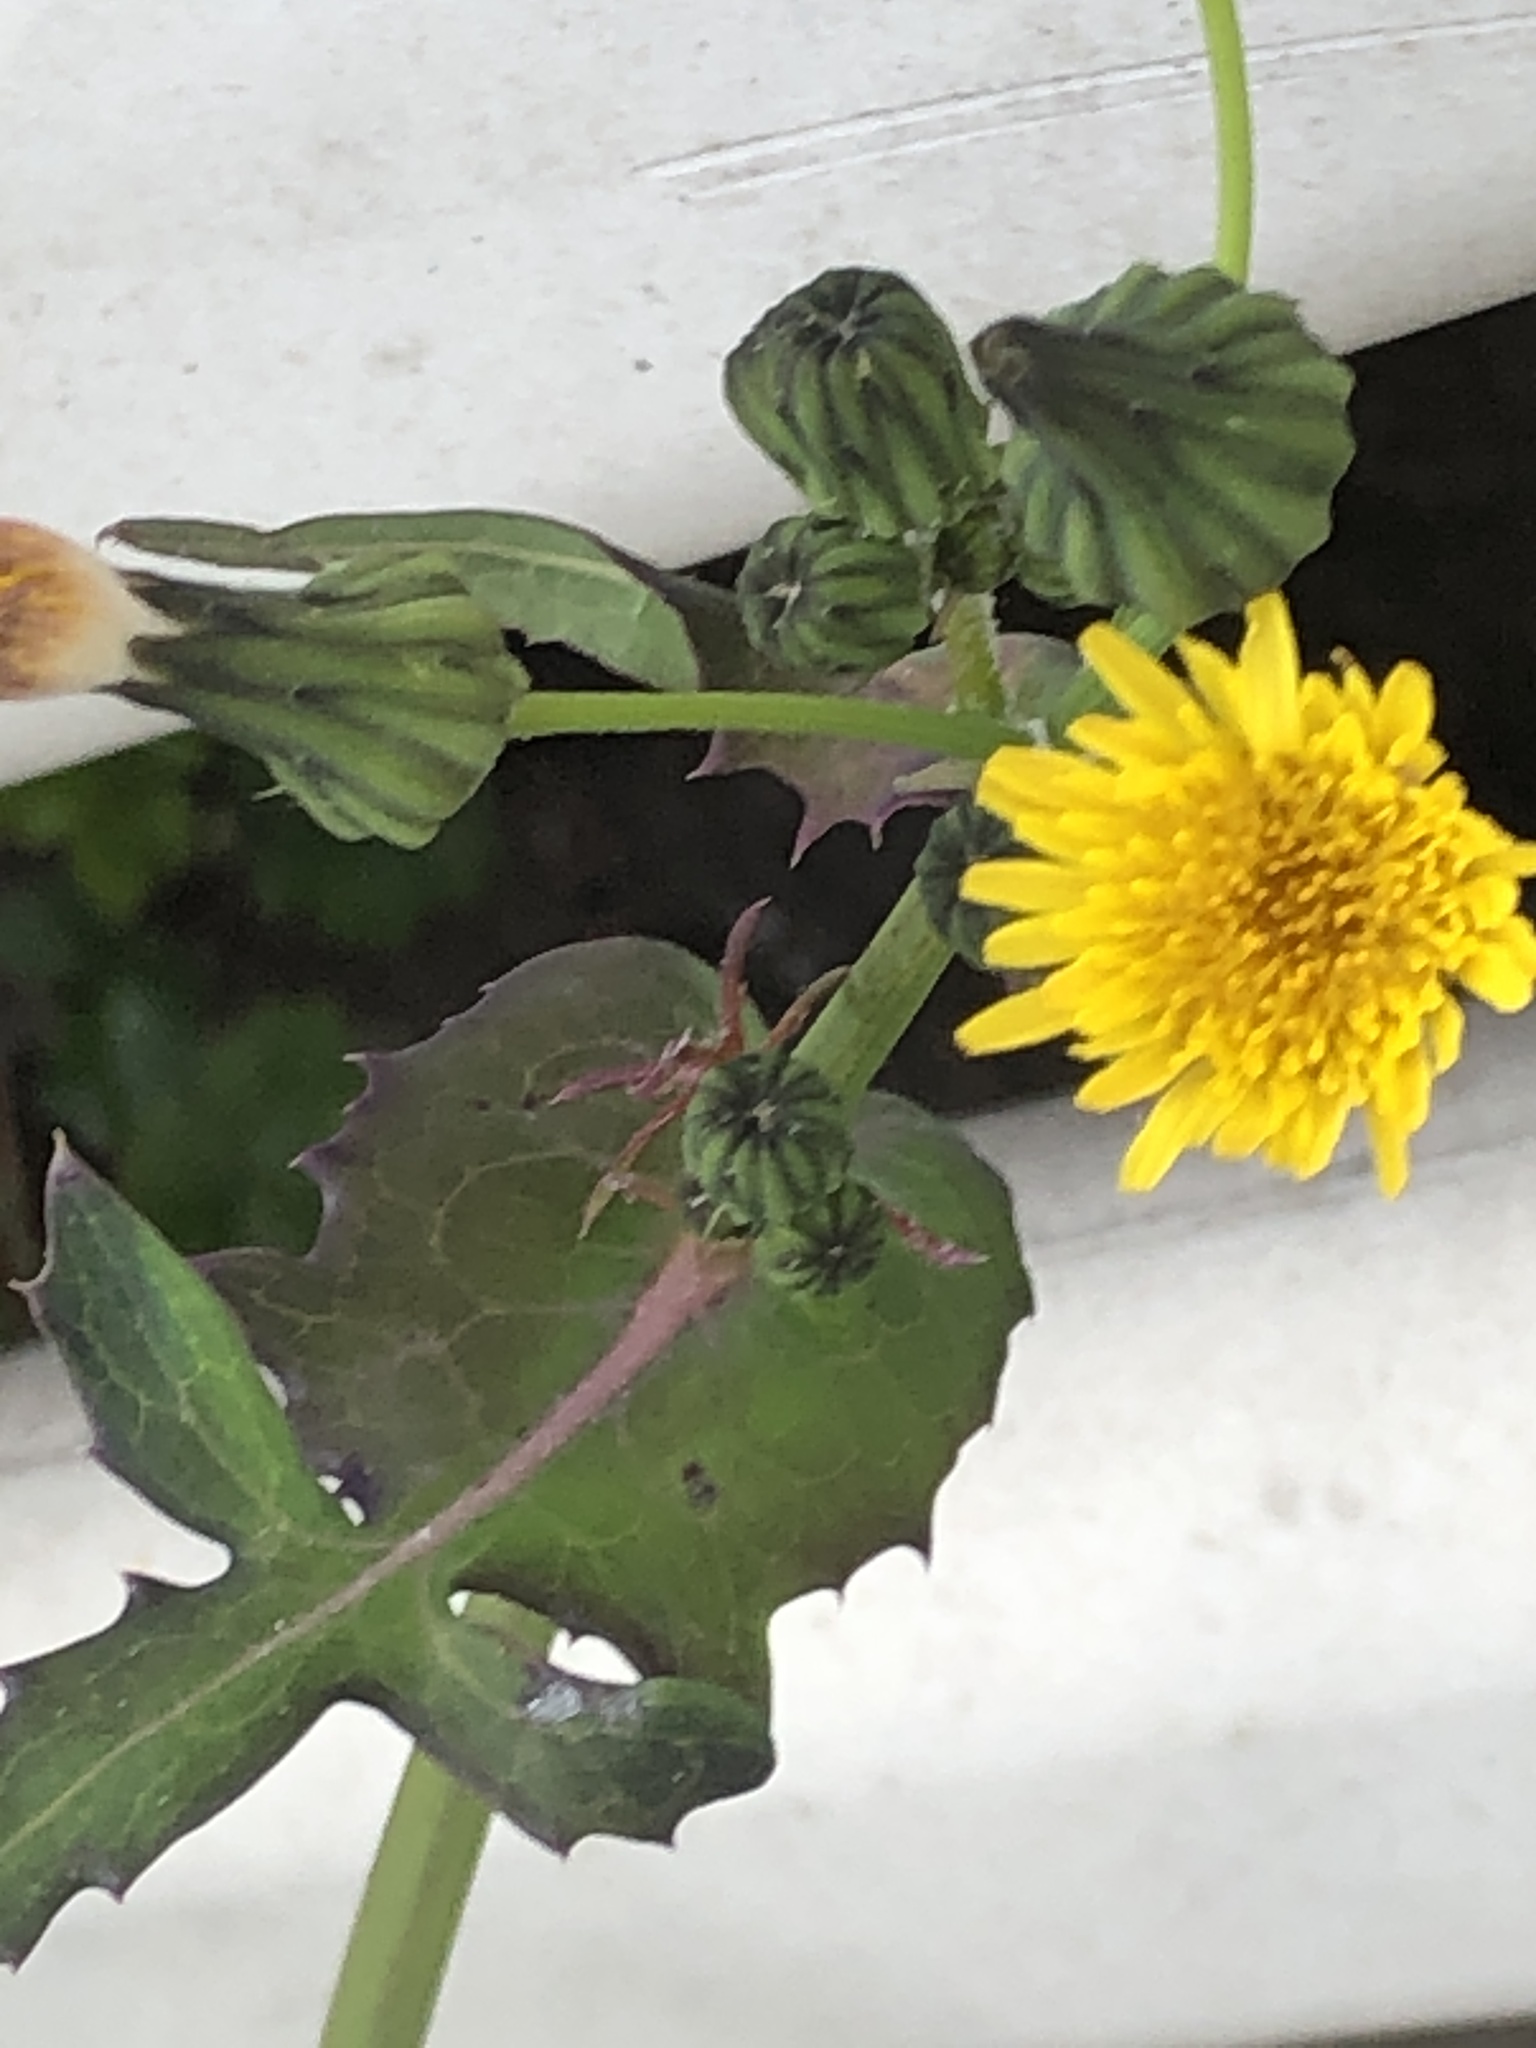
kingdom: Plantae
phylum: Tracheophyta
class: Magnoliopsida
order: Asterales
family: Asteraceae
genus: Sonchus
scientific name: Sonchus oleraceus
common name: Common sowthistle
